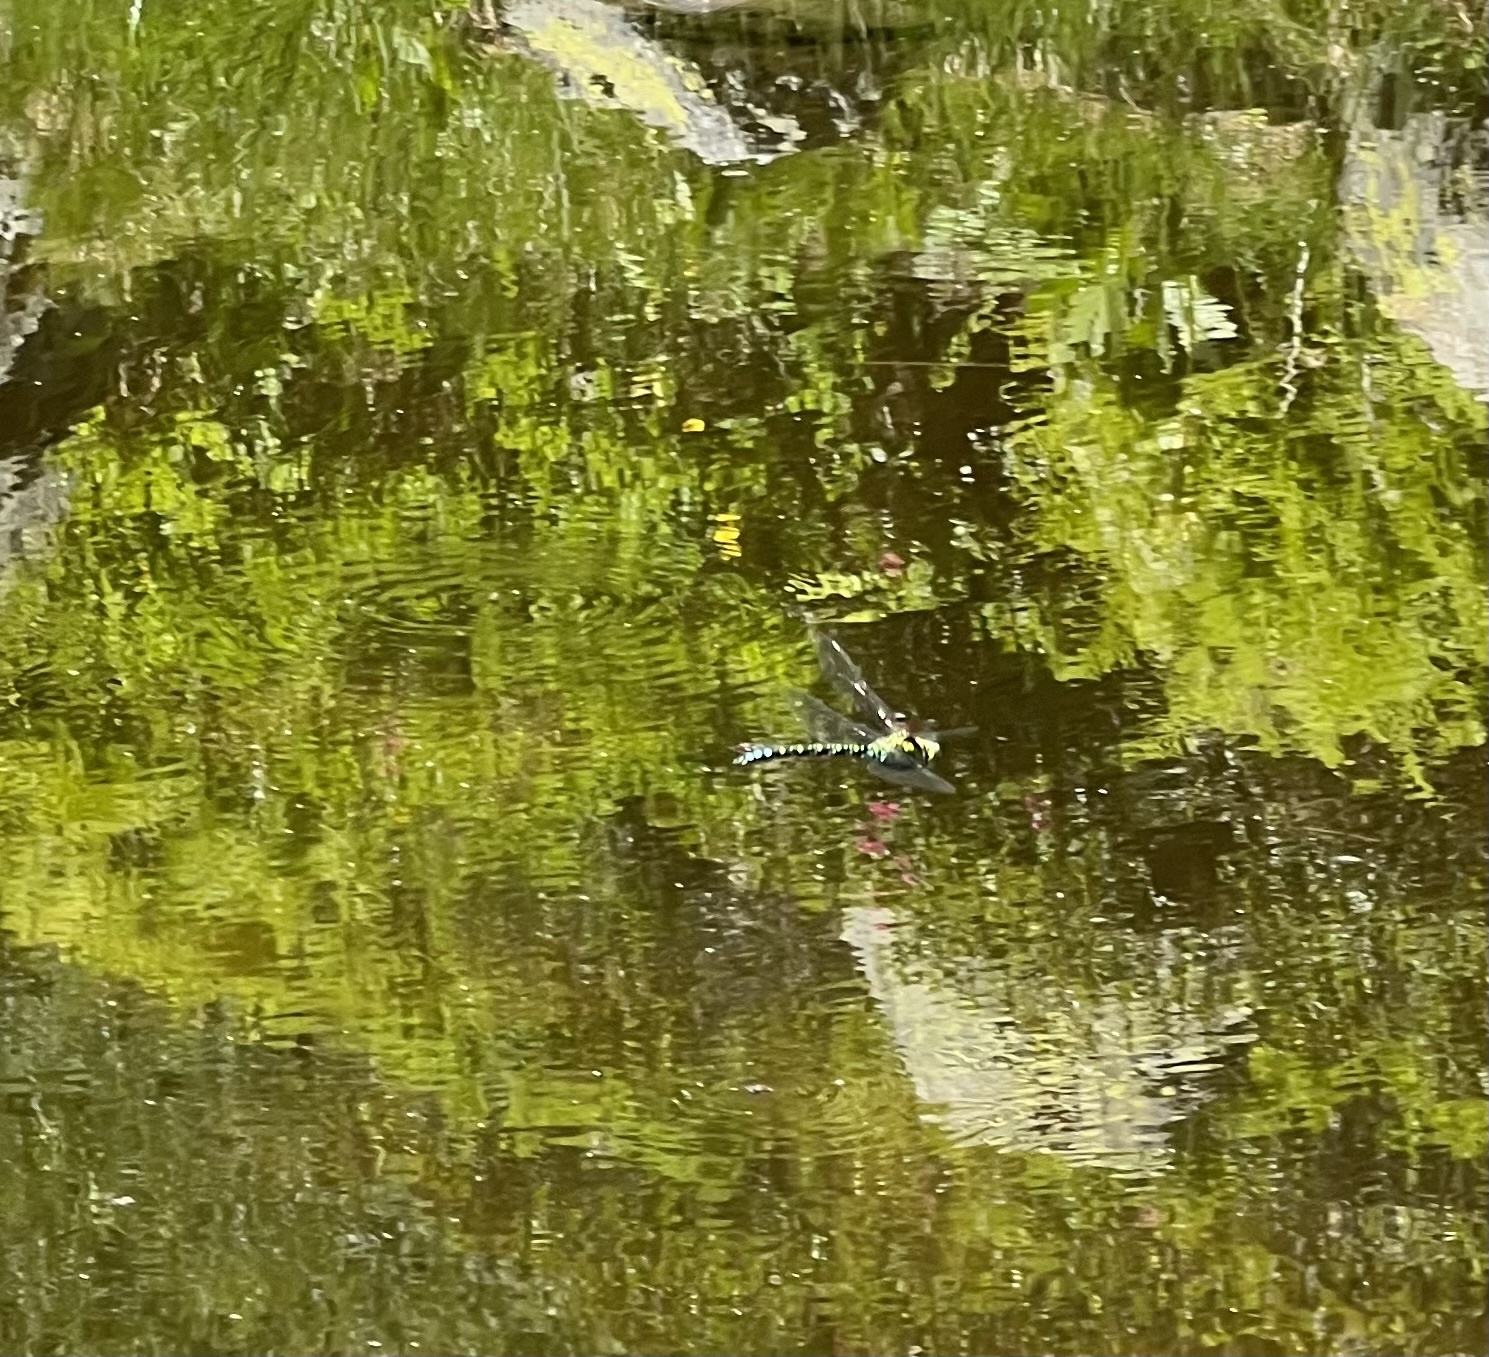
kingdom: Animalia
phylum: Arthropoda
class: Insecta
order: Odonata
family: Aeshnidae
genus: Aeshna
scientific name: Aeshna cyanea
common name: Southern hawker
